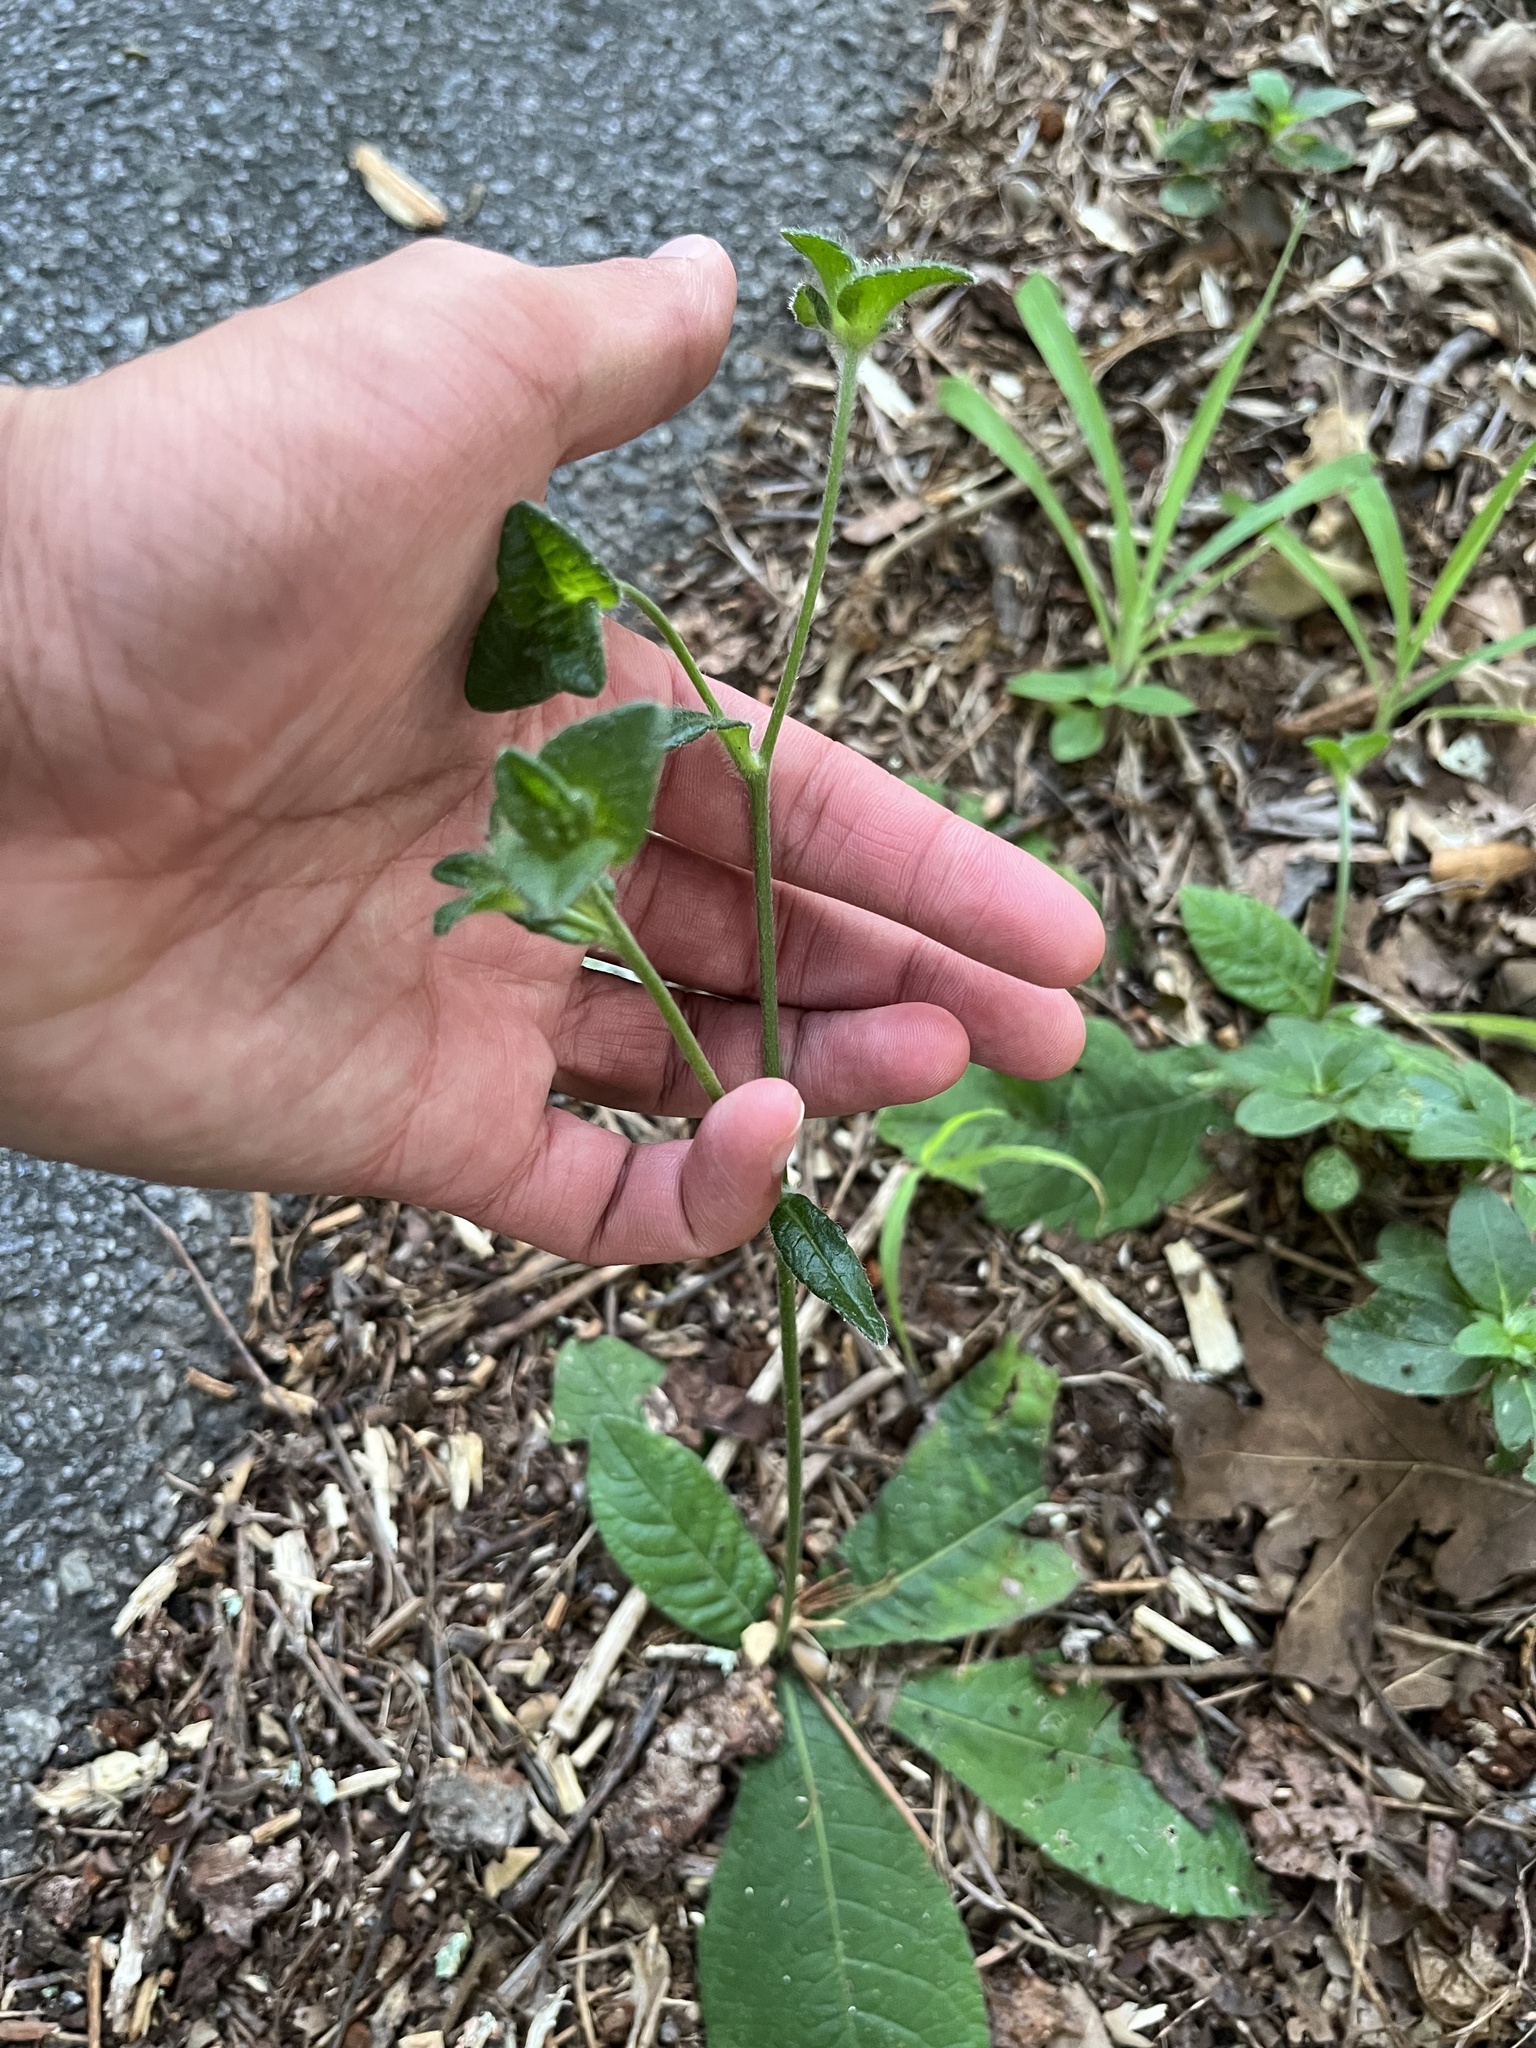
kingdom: Plantae
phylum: Tracheophyta
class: Magnoliopsida
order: Asterales
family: Asteraceae
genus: Elephantopus
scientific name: Elephantopus tomentosus
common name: Tobacco-weed
